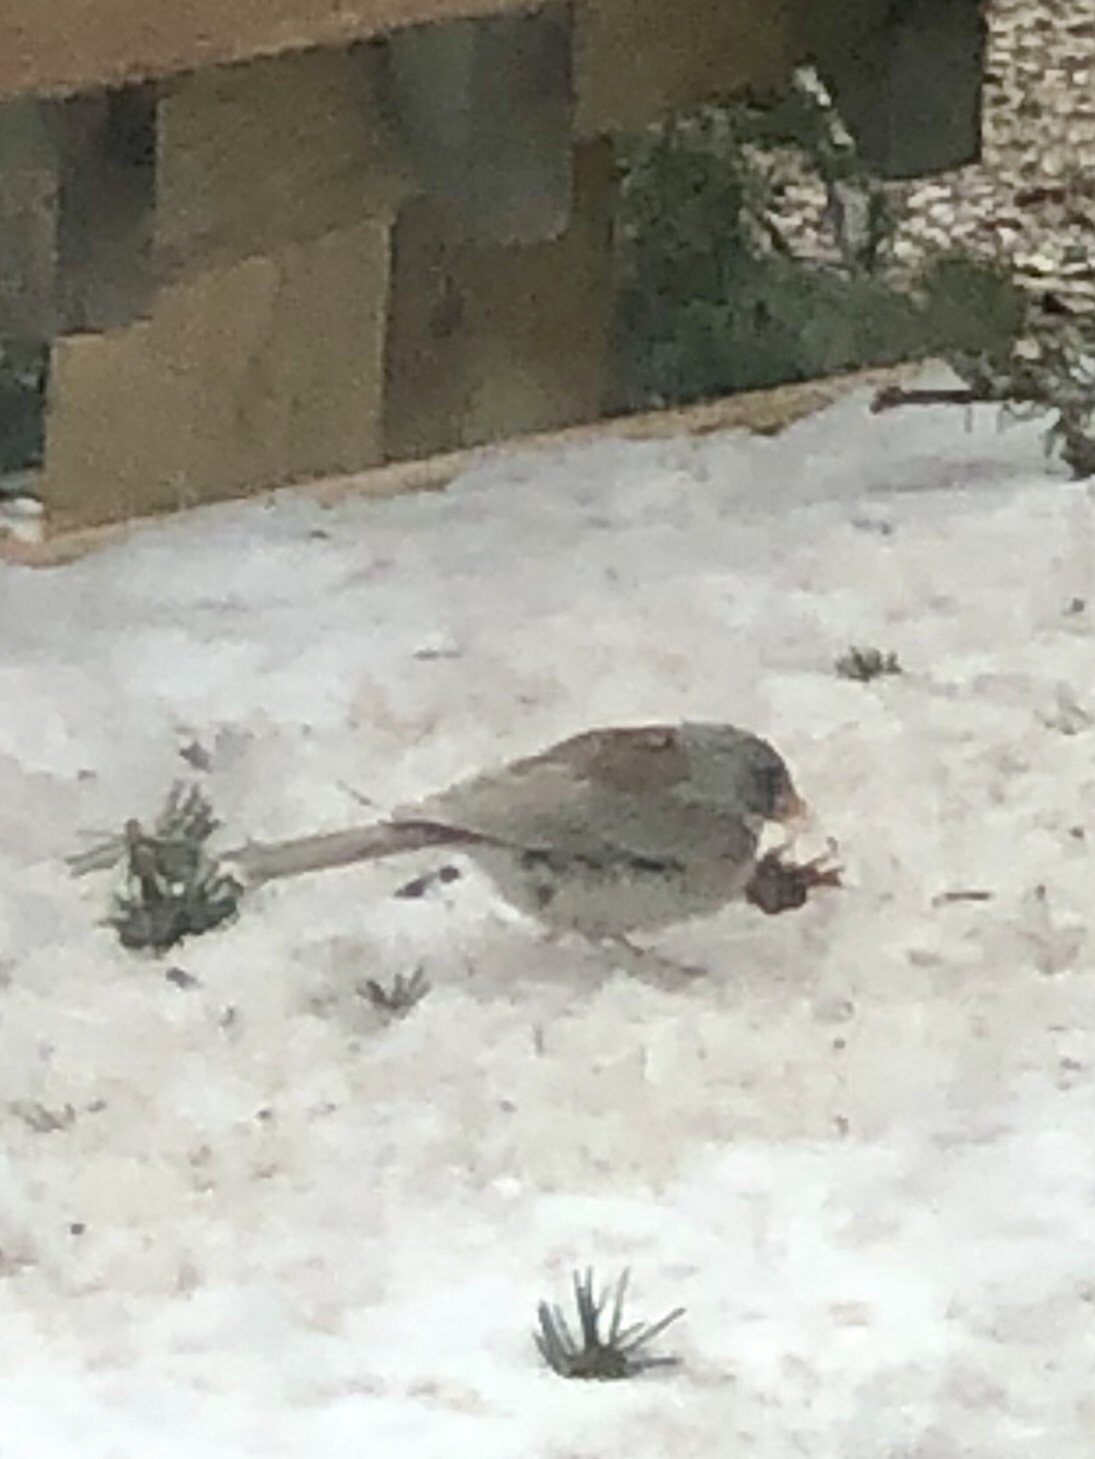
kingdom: Animalia
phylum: Chordata
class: Aves
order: Passeriformes
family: Passerellidae
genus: Junco
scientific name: Junco hyemalis
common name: Dark-eyed junco
